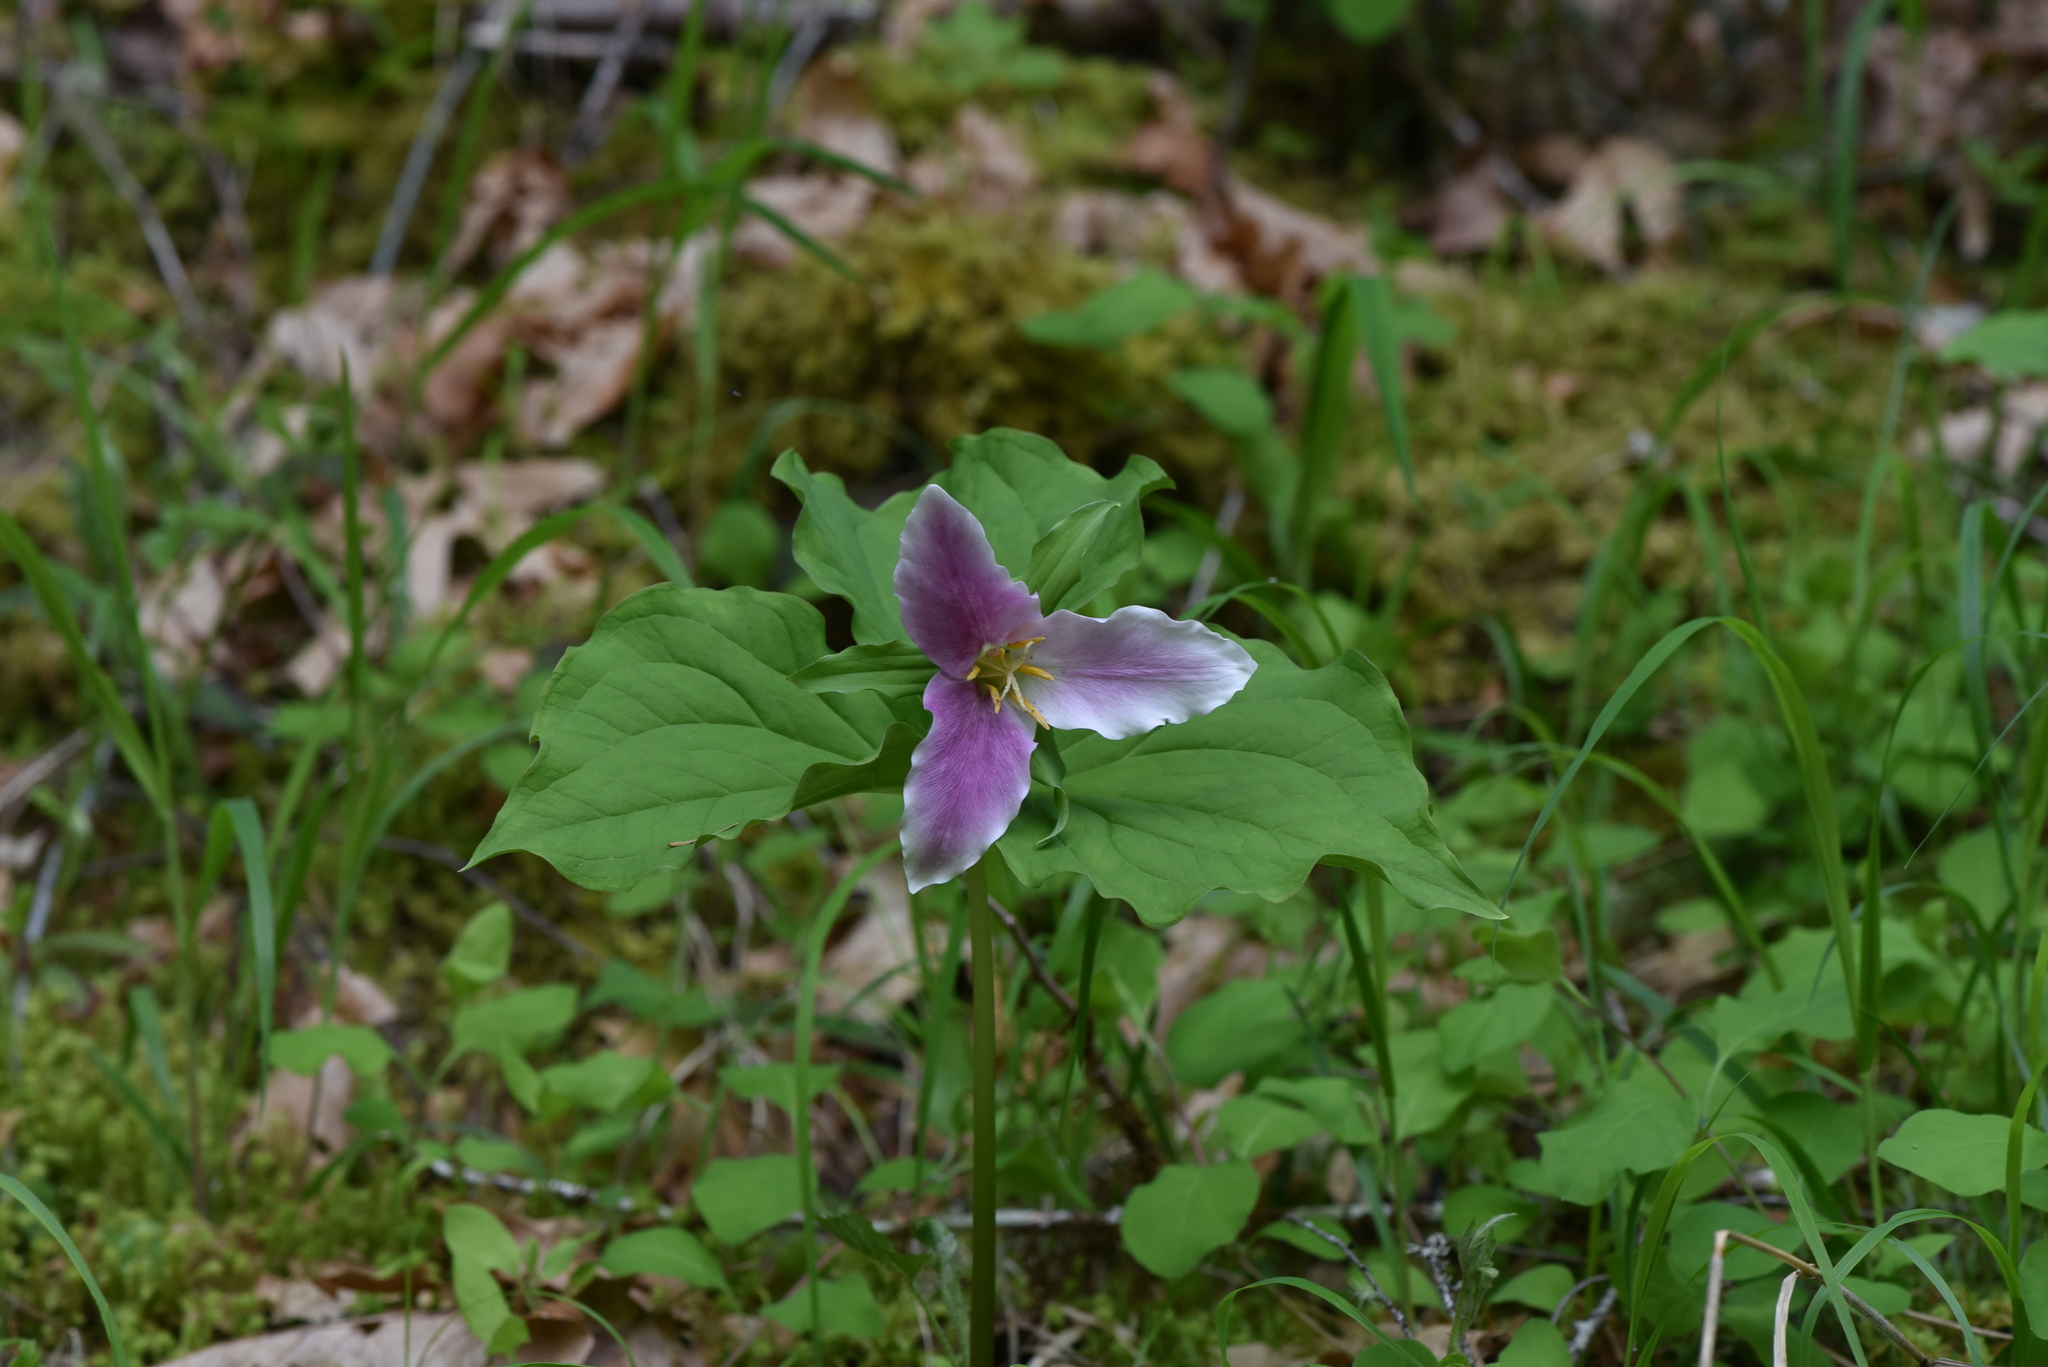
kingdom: Plantae
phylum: Tracheophyta
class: Liliopsida
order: Liliales
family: Melanthiaceae
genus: Trillium
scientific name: Trillium ovatum
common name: Pacific trillium
